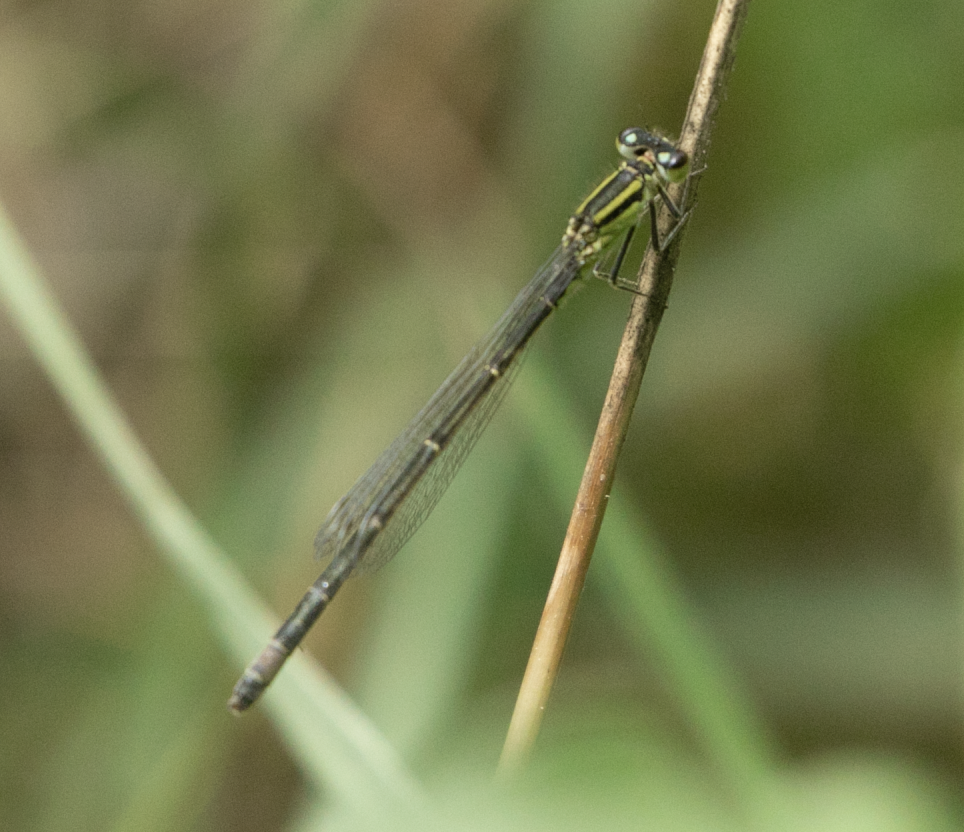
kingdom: Animalia
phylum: Arthropoda
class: Insecta
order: Odonata
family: Coenagrionidae
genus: Ischnura
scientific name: Ischnura elegans
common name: Blue-tailed damselfly
